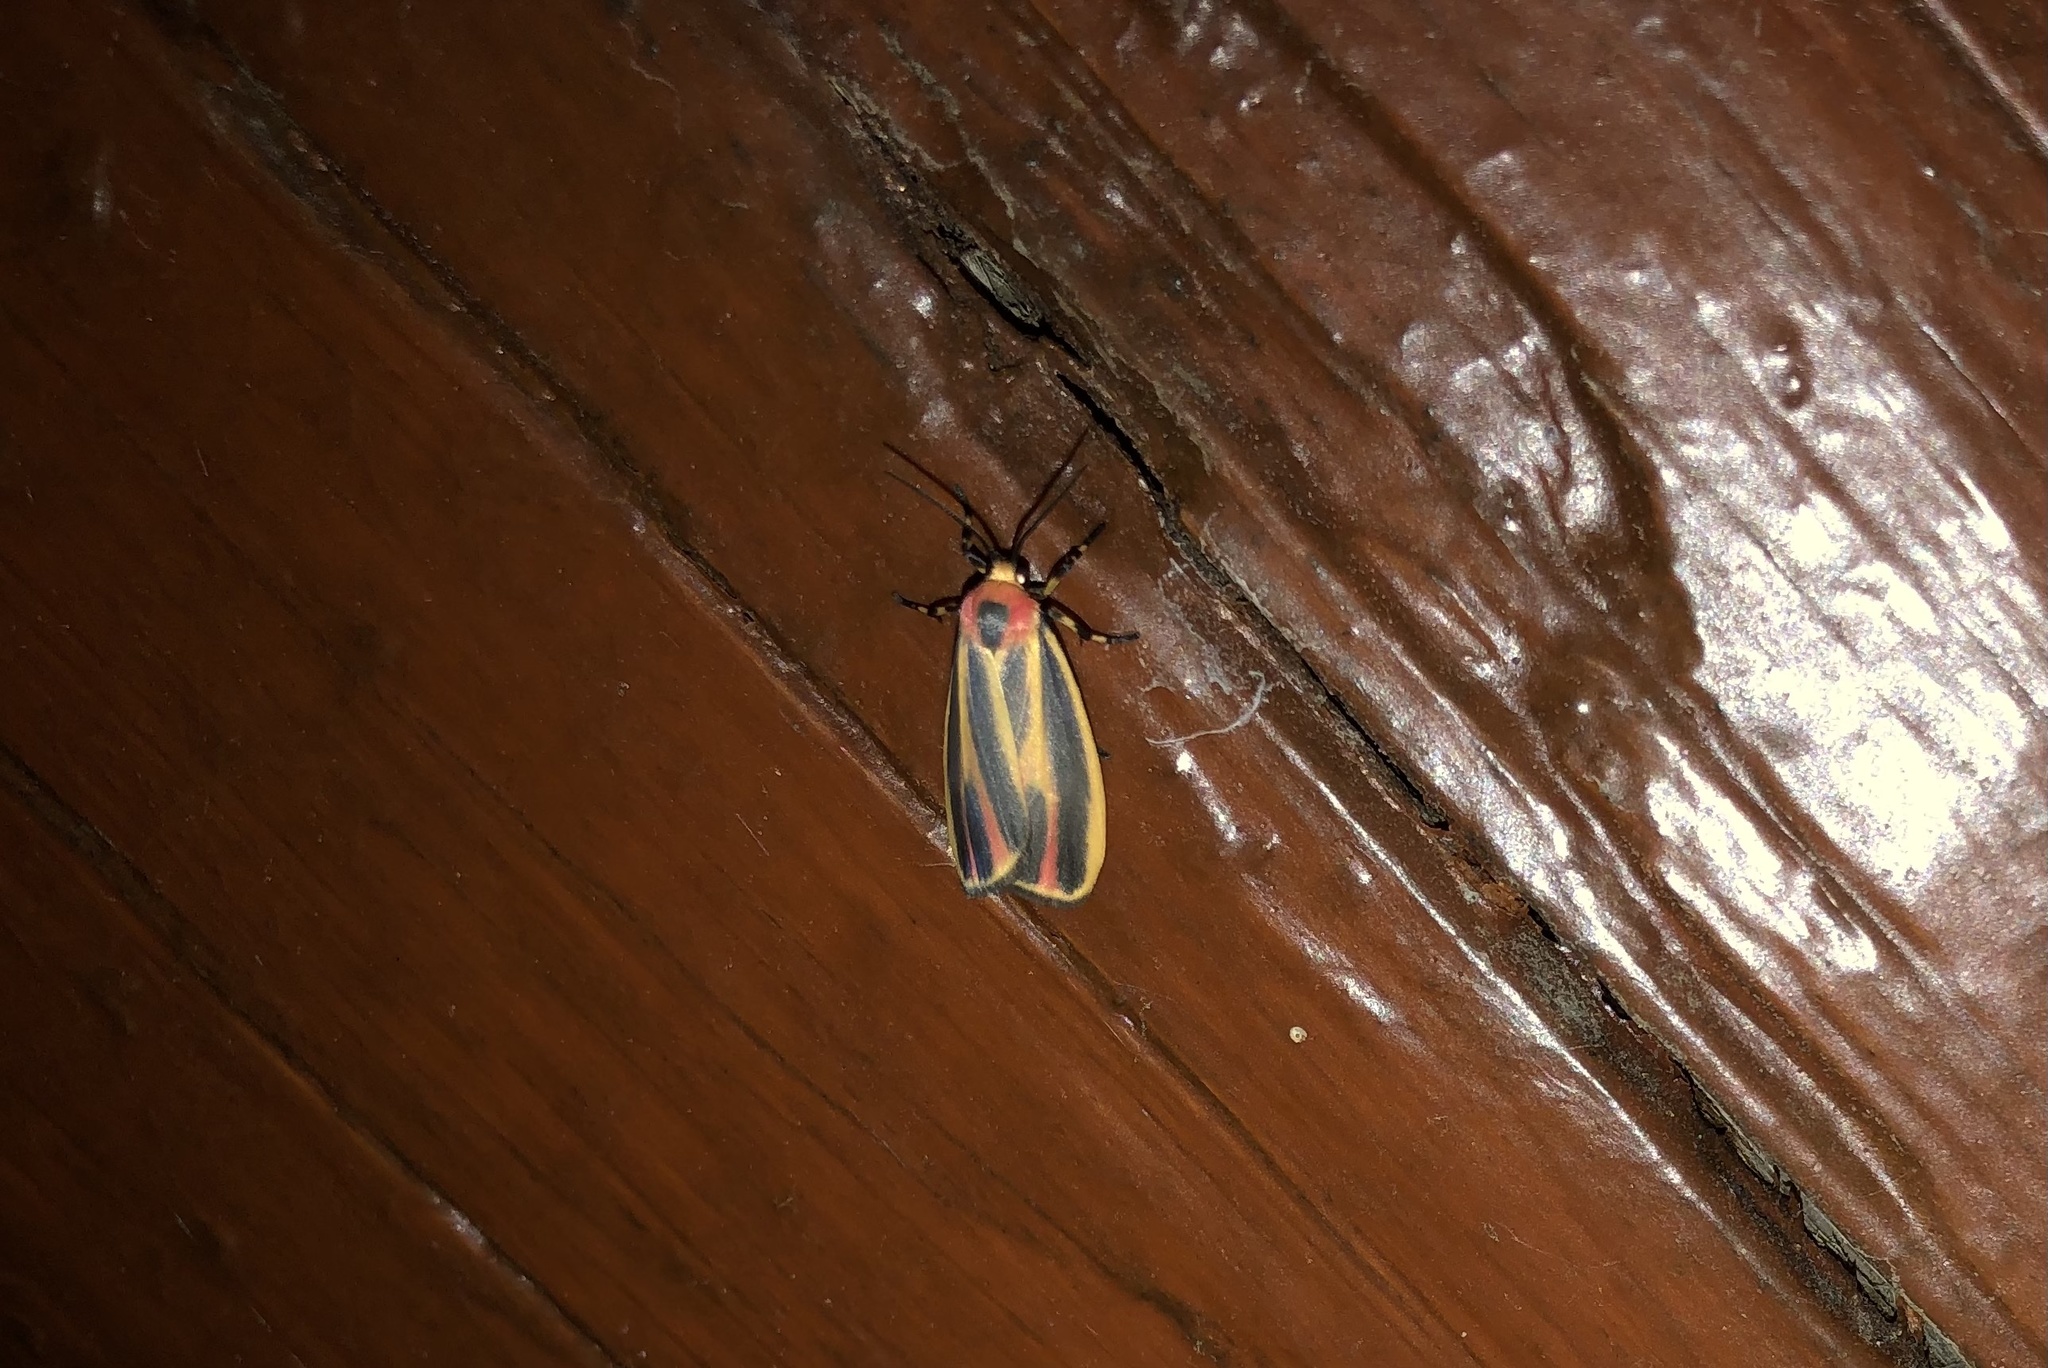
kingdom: Animalia
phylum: Arthropoda
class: Insecta
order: Lepidoptera
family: Erebidae
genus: Hypoprepia
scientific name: Hypoprepia fucosa
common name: Painted lichen moth
